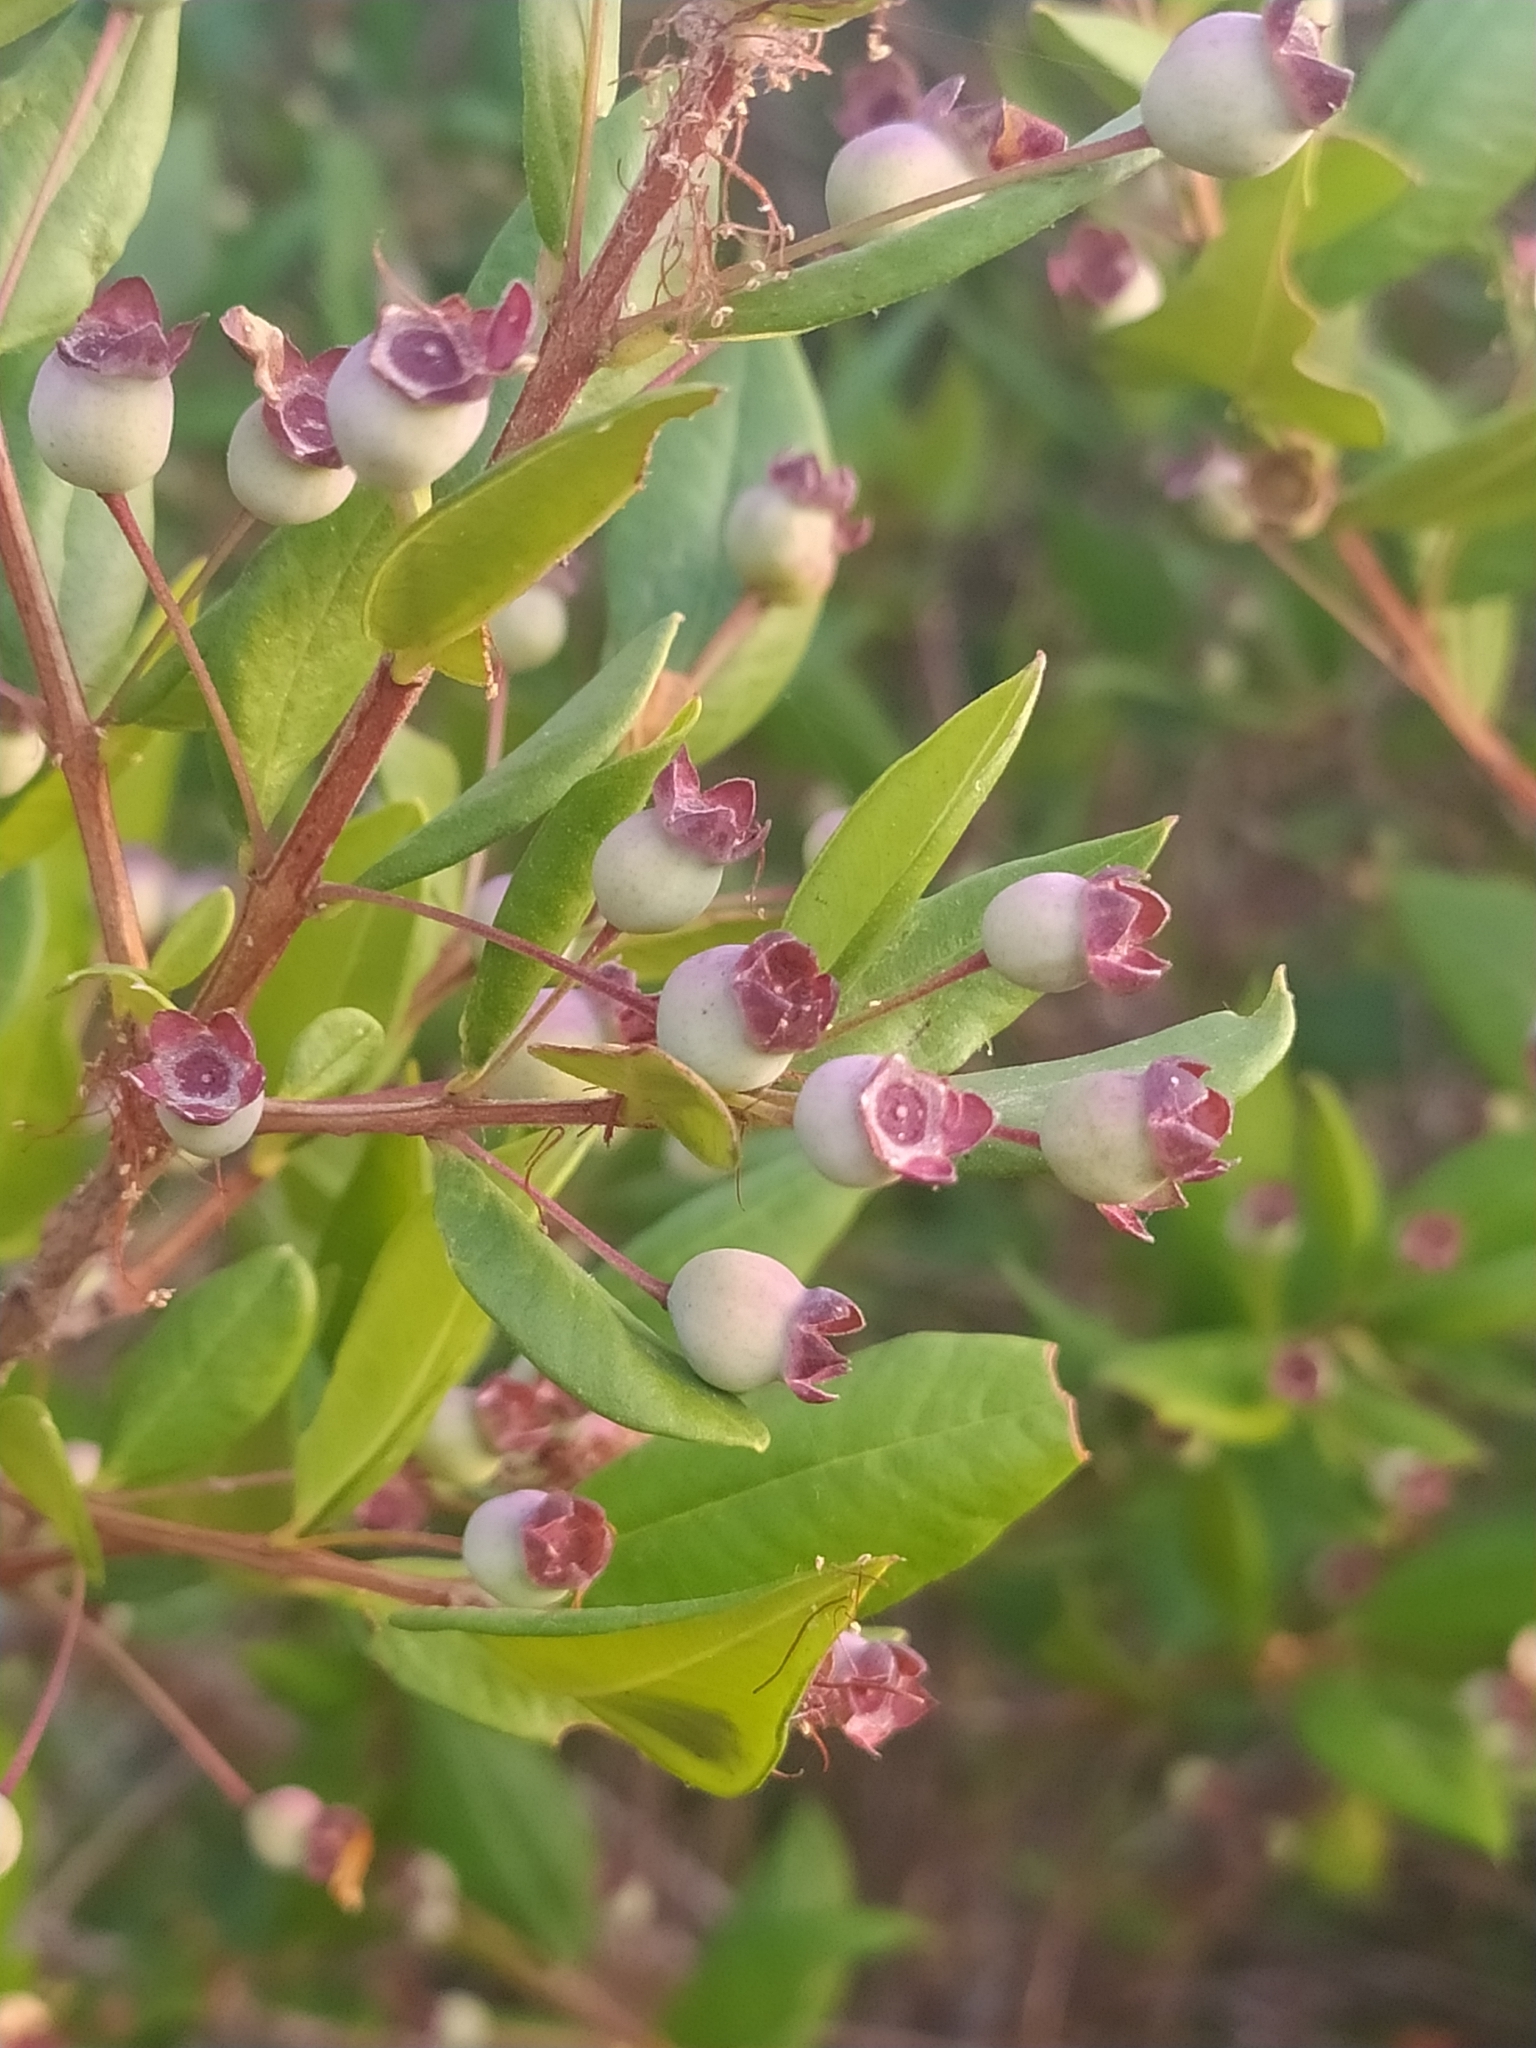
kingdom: Plantae
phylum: Tracheophyta
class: Magnoliopsida
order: Myrtales
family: Myrtaceae
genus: Myrtus
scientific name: Myrtus communis
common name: Myrtle
